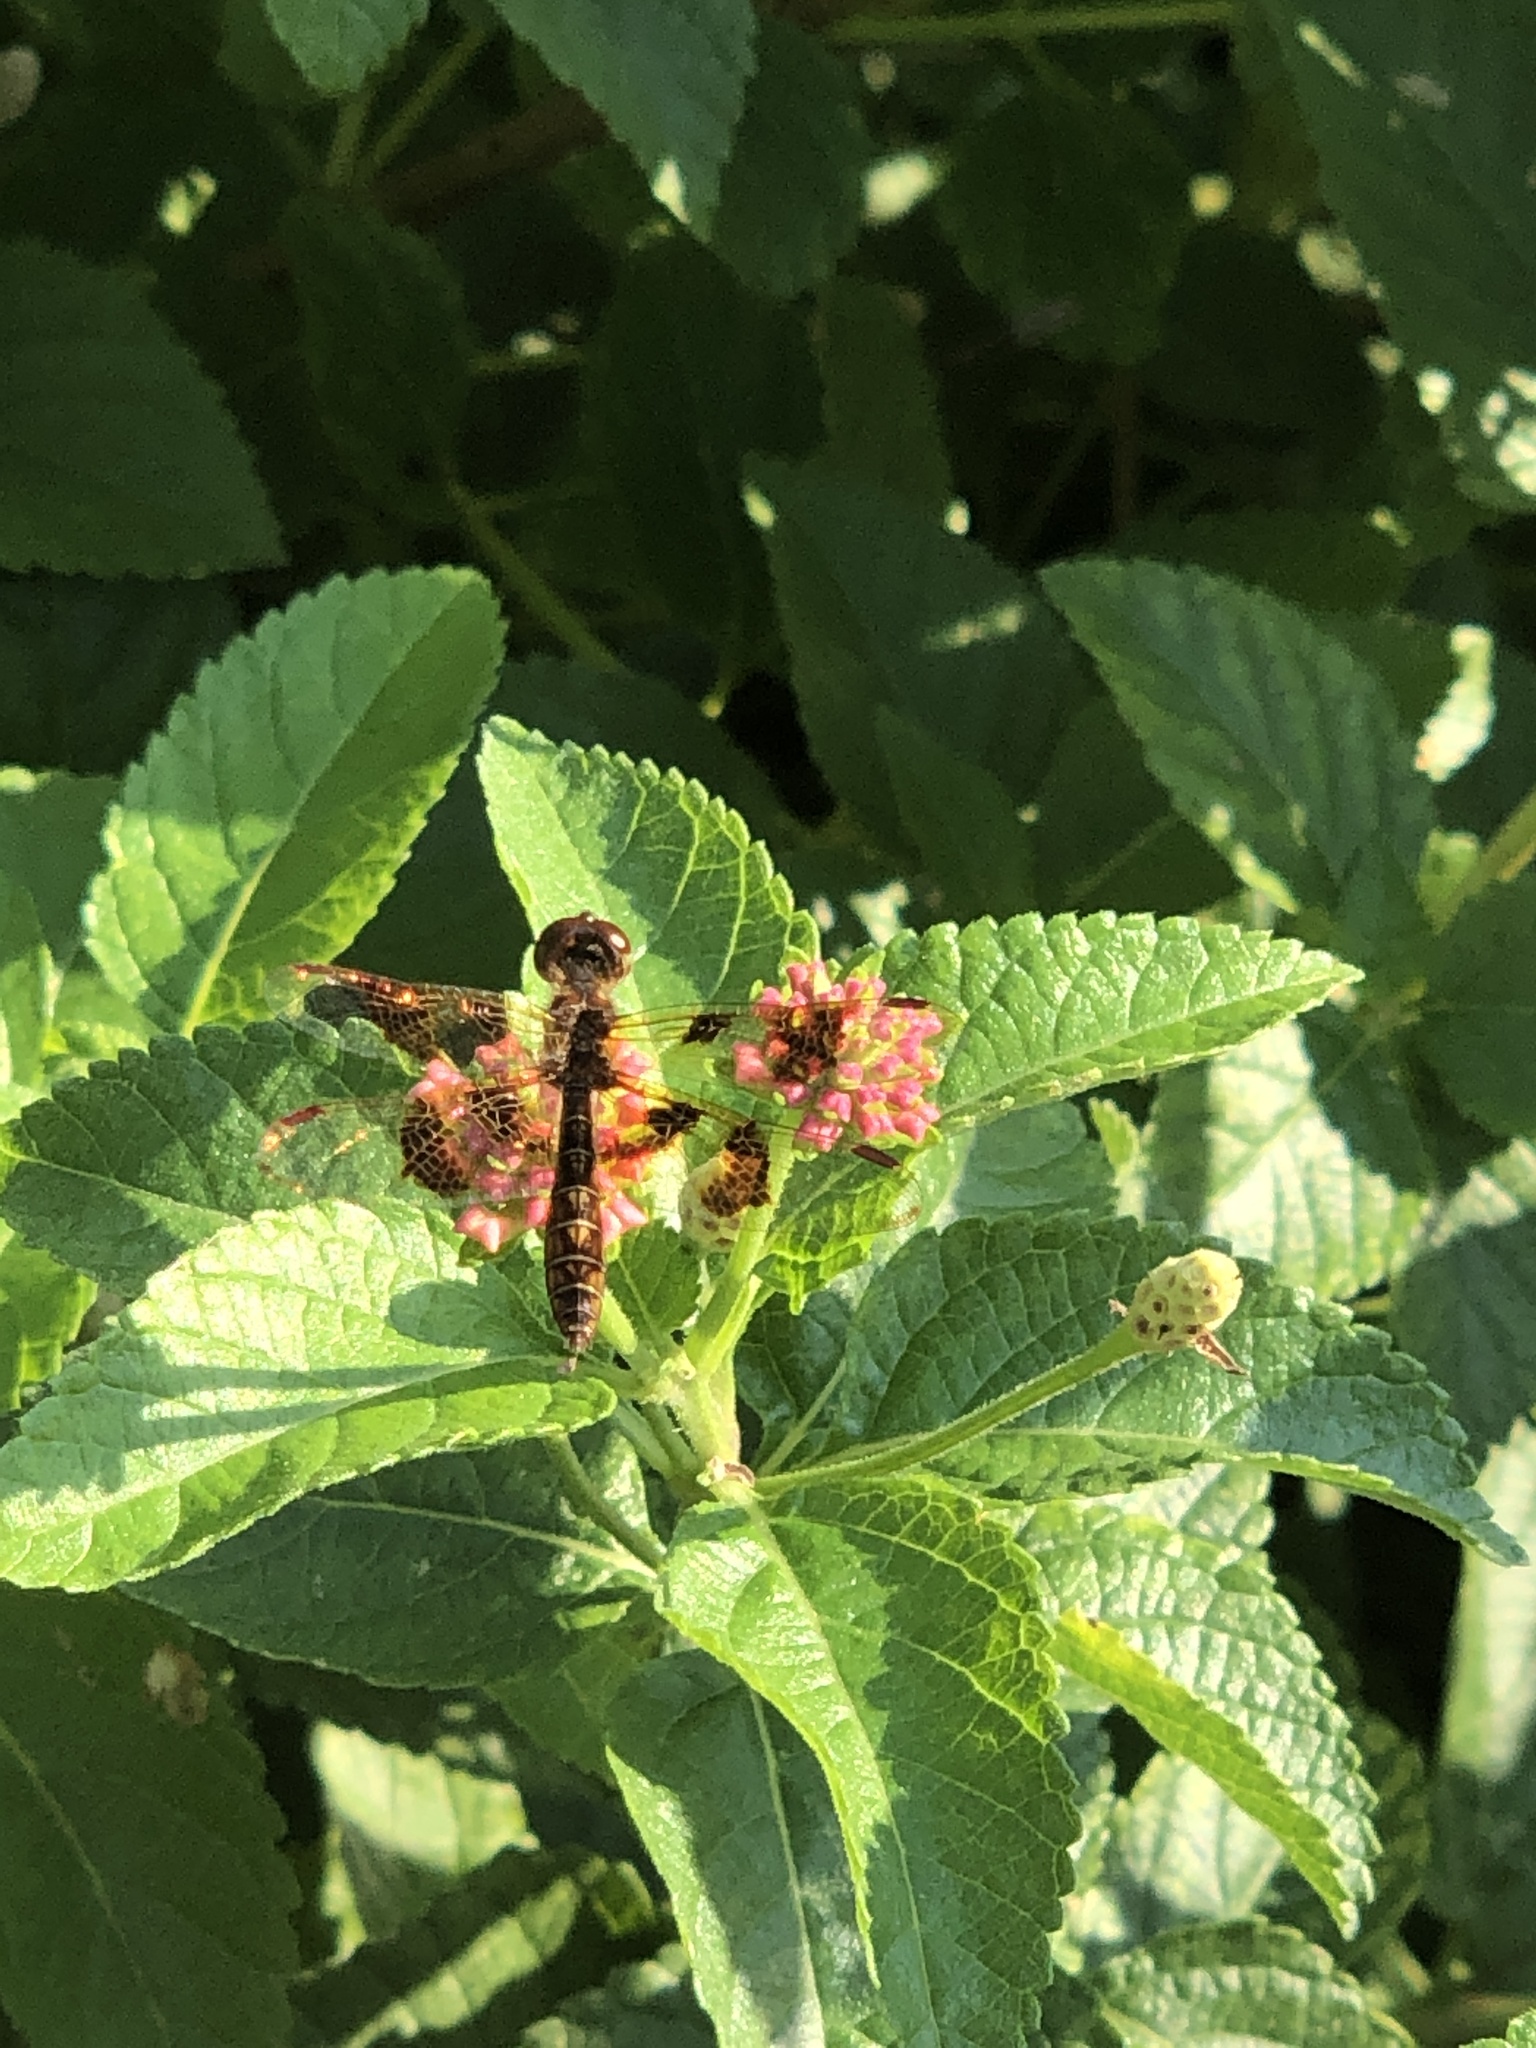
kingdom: Animalia
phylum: Arthropoda
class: Insecta
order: Odonata
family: Libellulidae
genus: Perithemis
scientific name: Perithemis tenera
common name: Eastern amberwing
